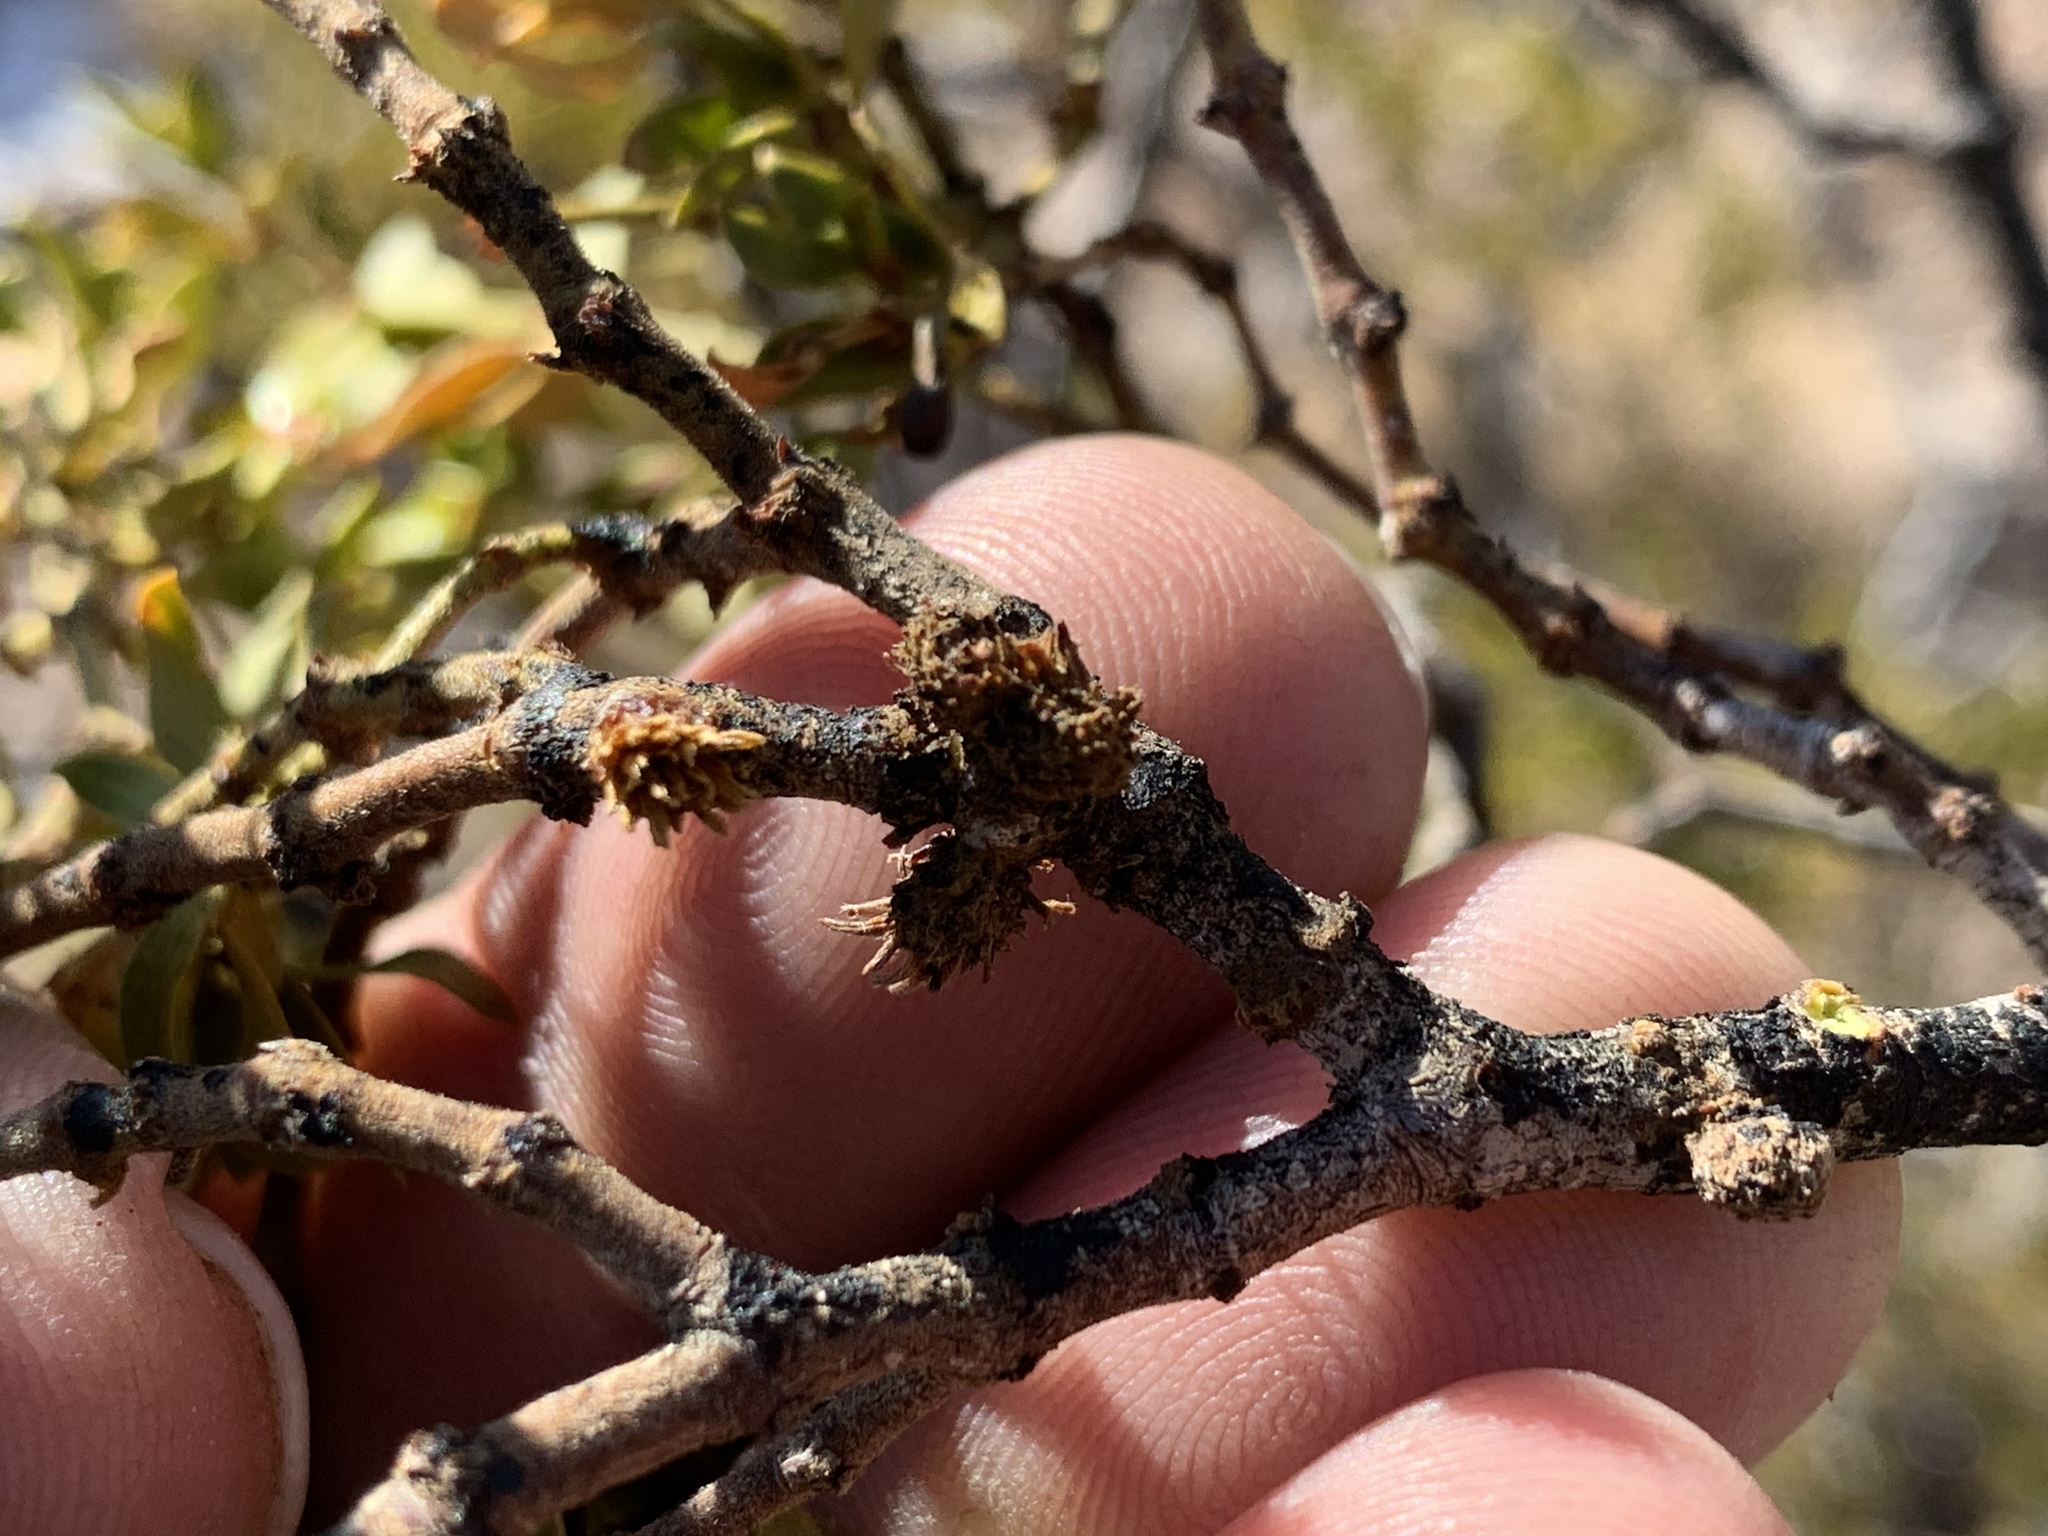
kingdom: Animalia
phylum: Arthropoda
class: Insecta
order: Diptera
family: Cecidomyiidae
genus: Asphondylia
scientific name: Asphondylia rosetta
